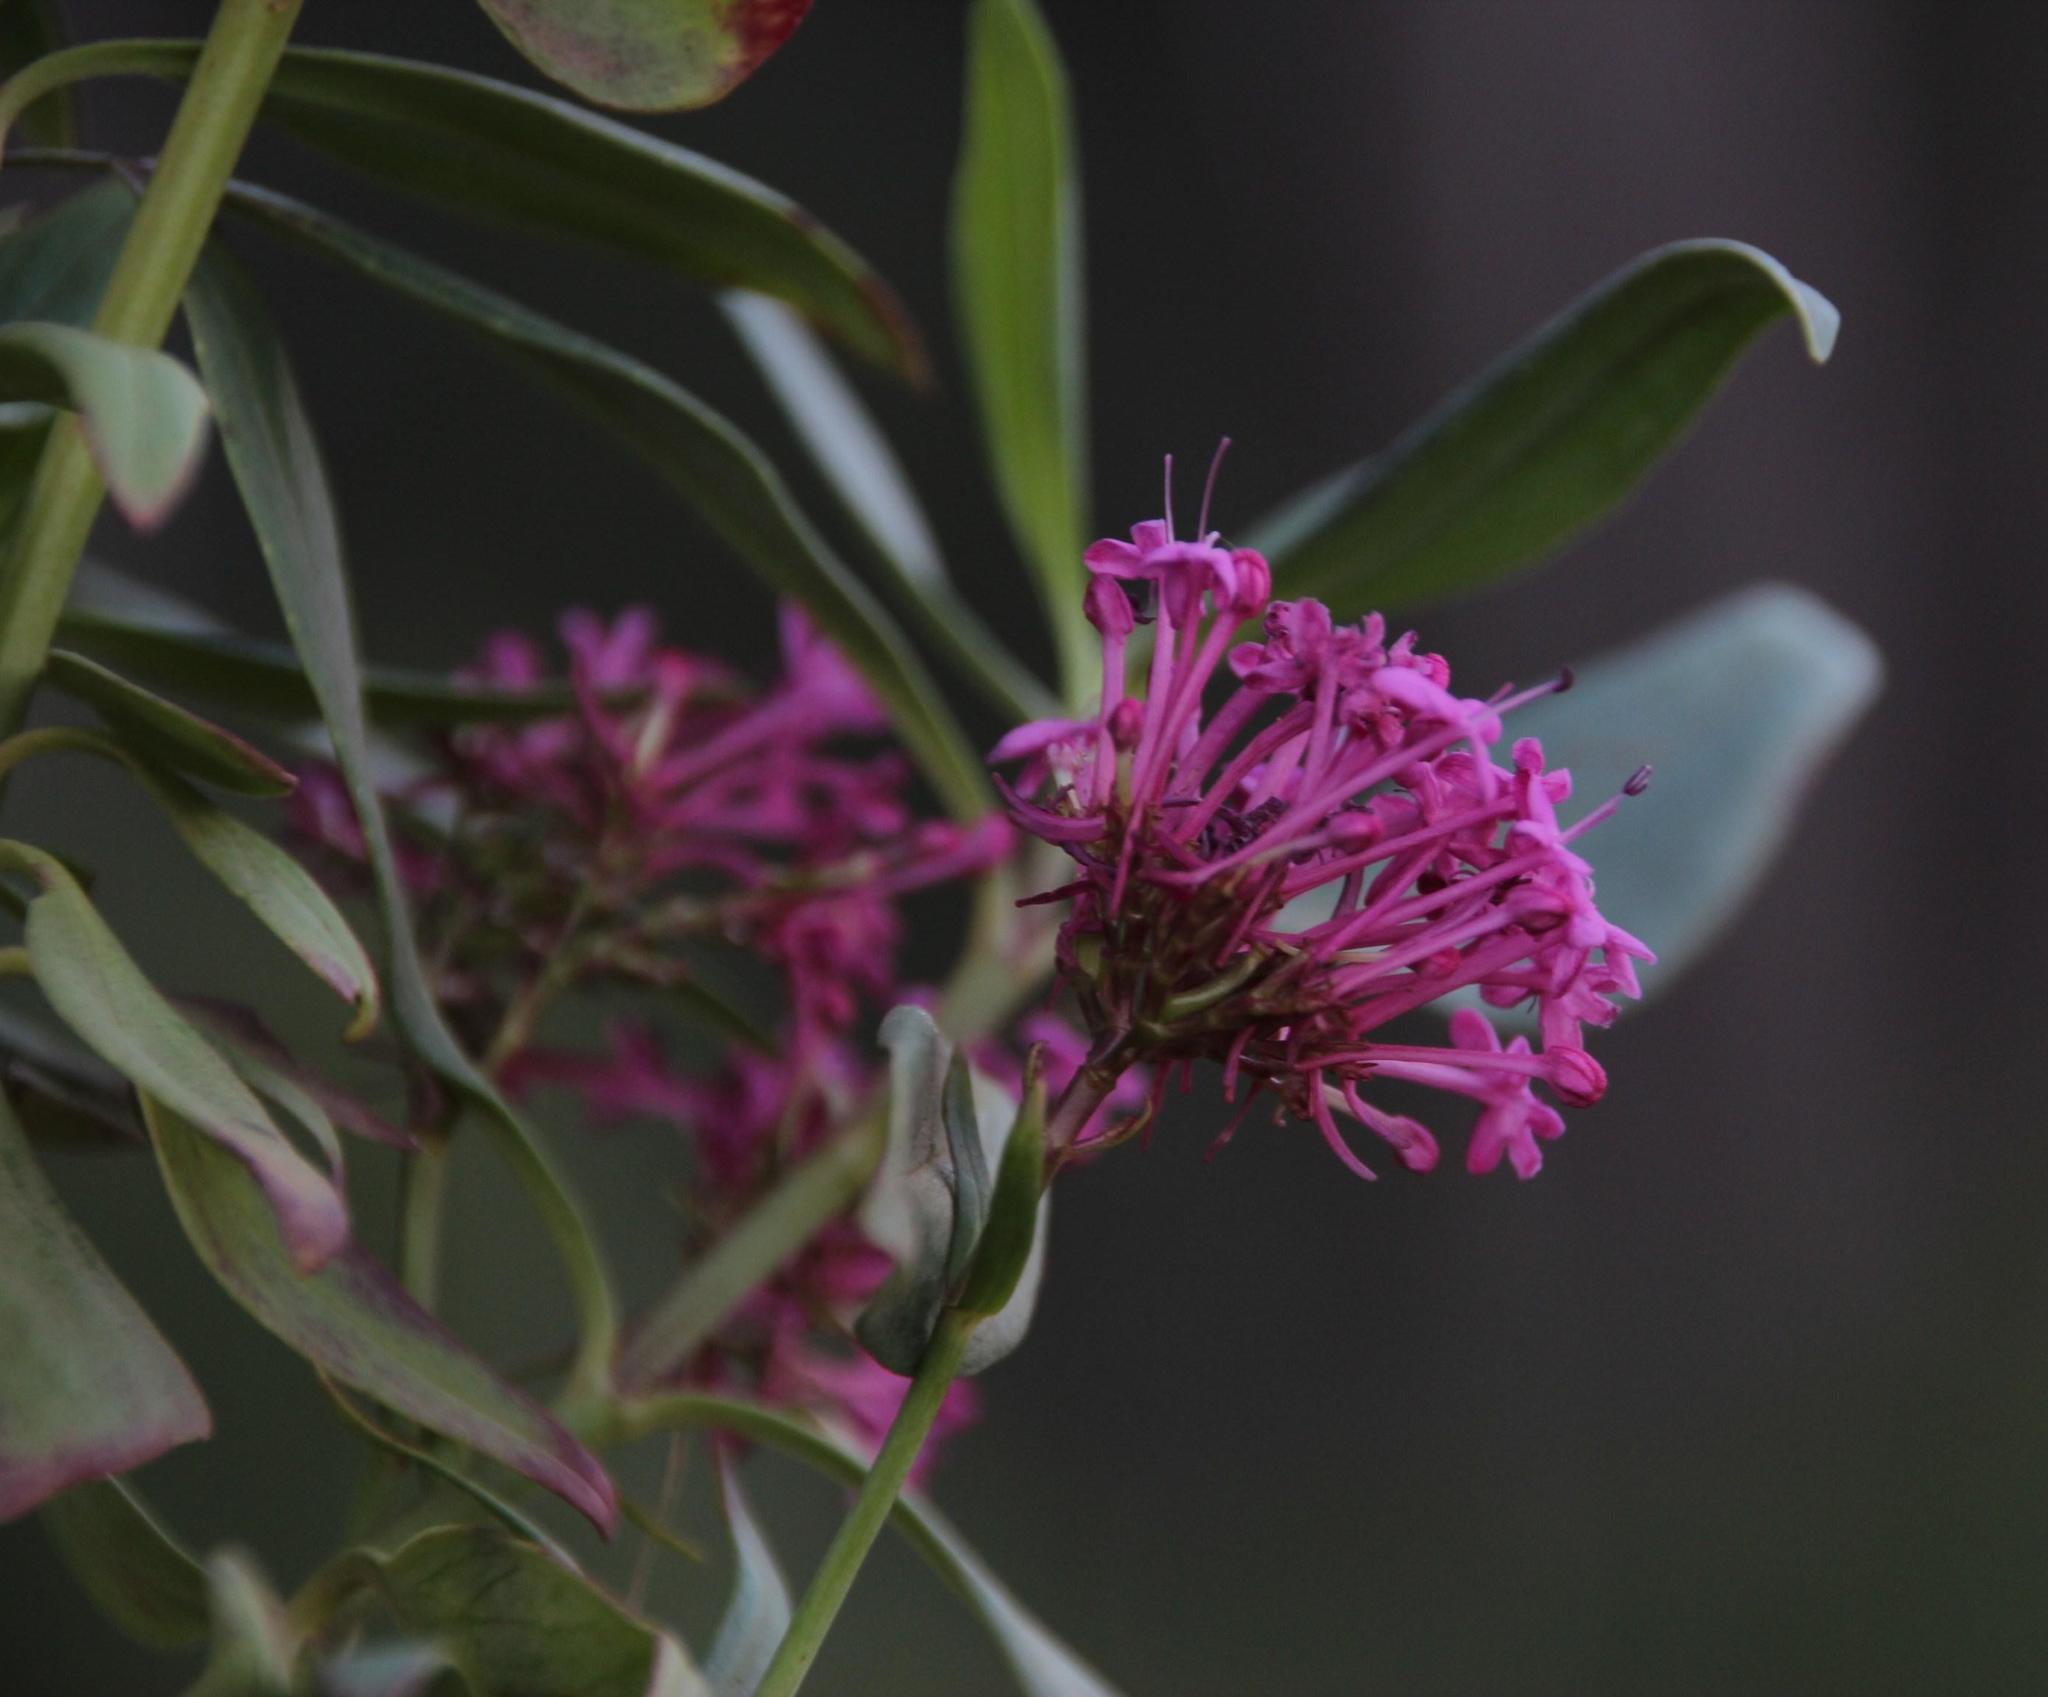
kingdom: Plantae
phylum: Tracheophyta
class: Magnoliopsida
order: Dipsacales
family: Caprifoliaceae
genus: Centranthus
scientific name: Centranthus ruber
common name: Red valerian
